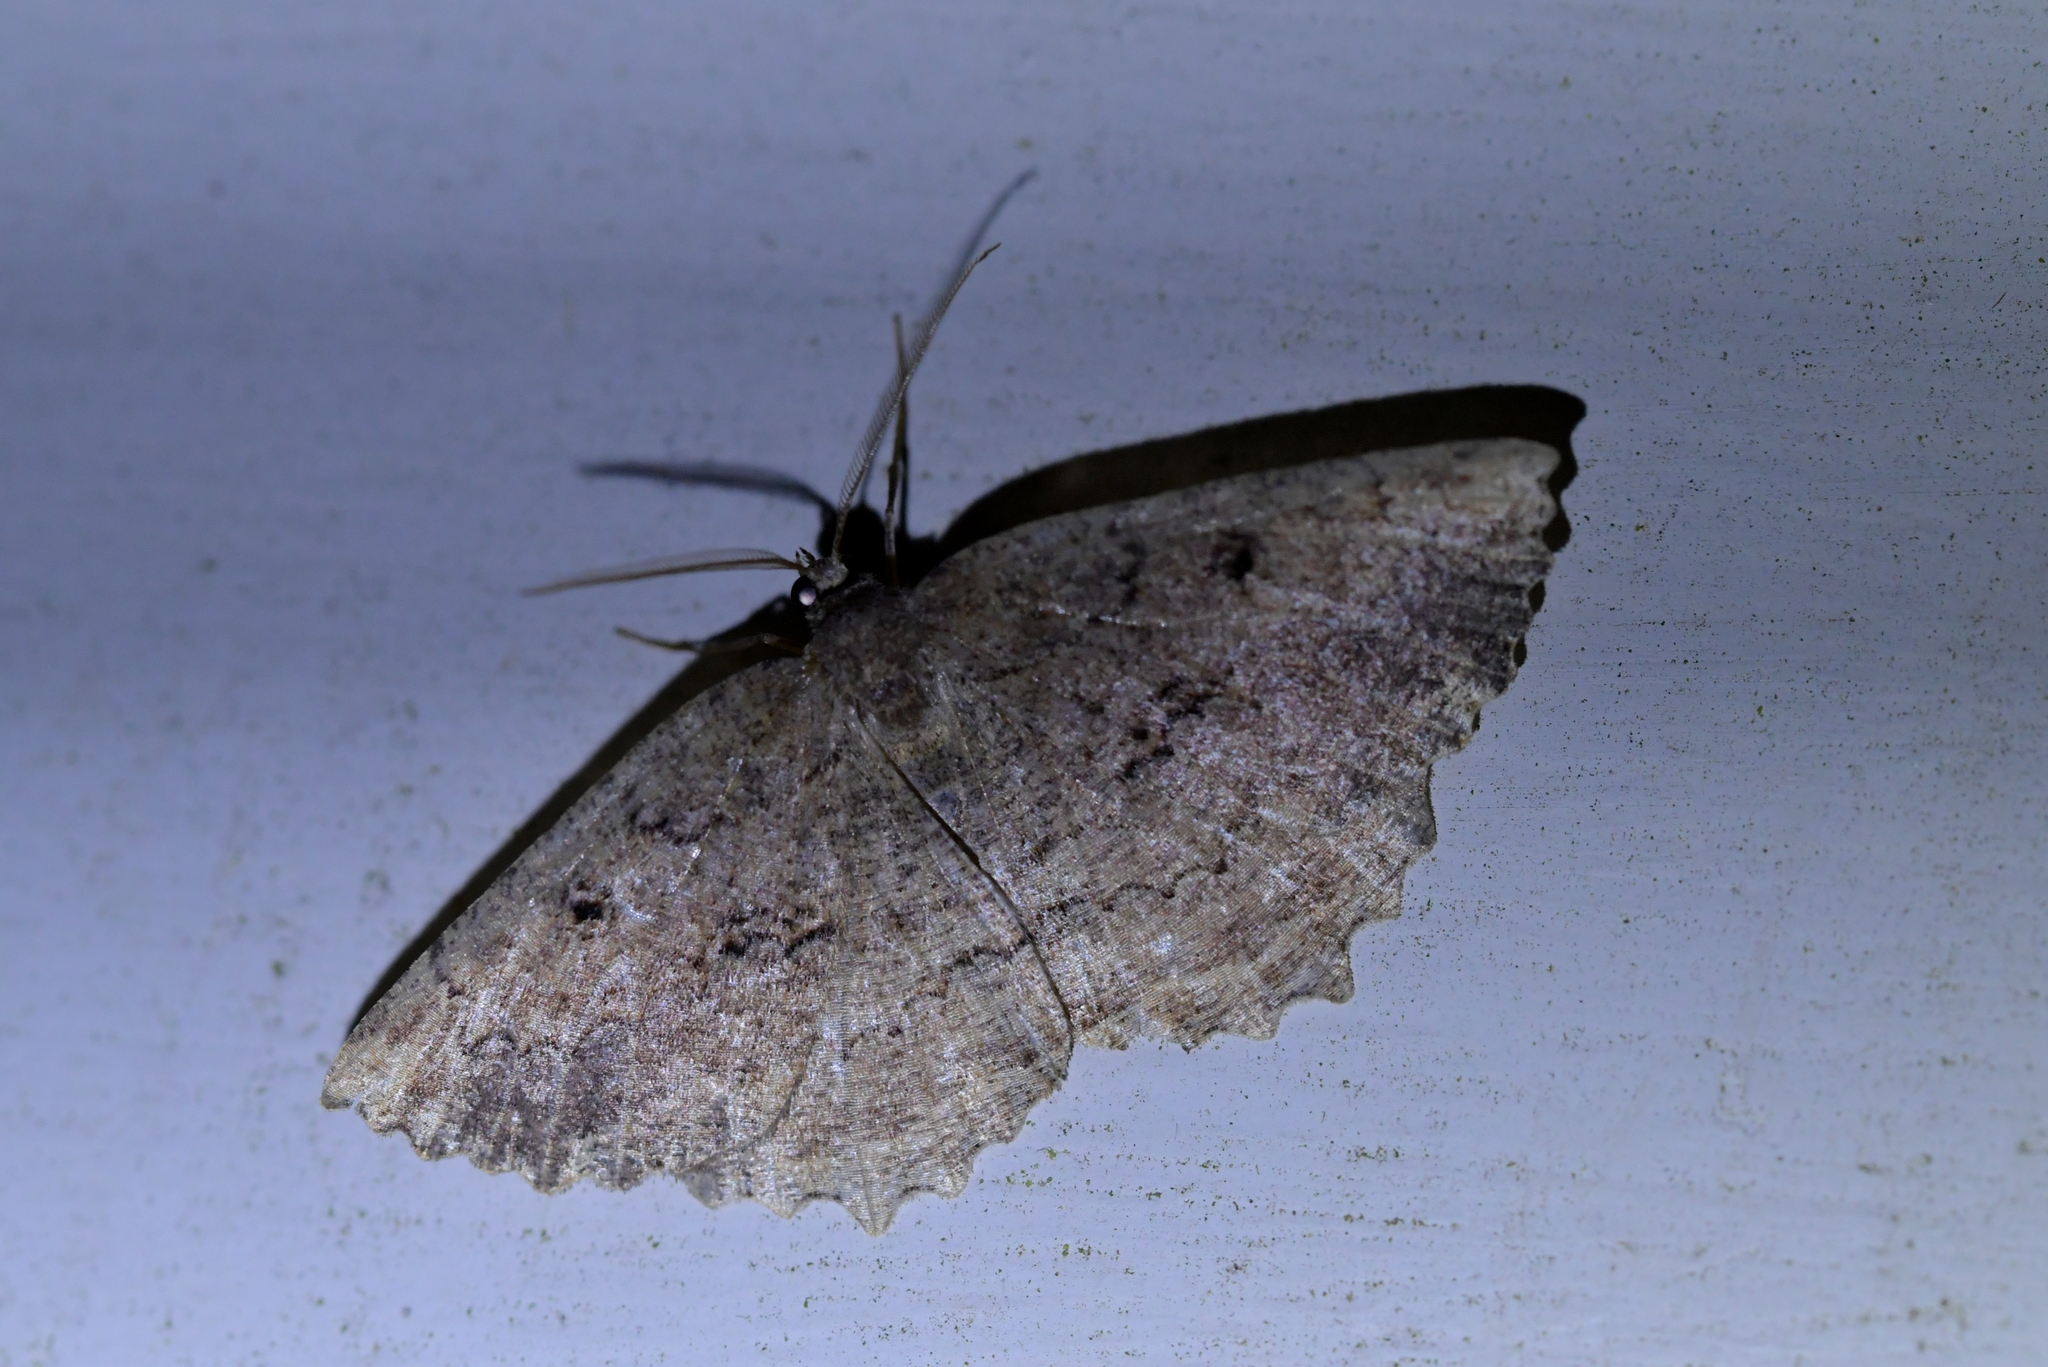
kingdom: Animalia
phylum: Arthropoda
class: Insecta
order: Lepidoptera
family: Geometridae
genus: Gellonia
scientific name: Gellonia pannularia
